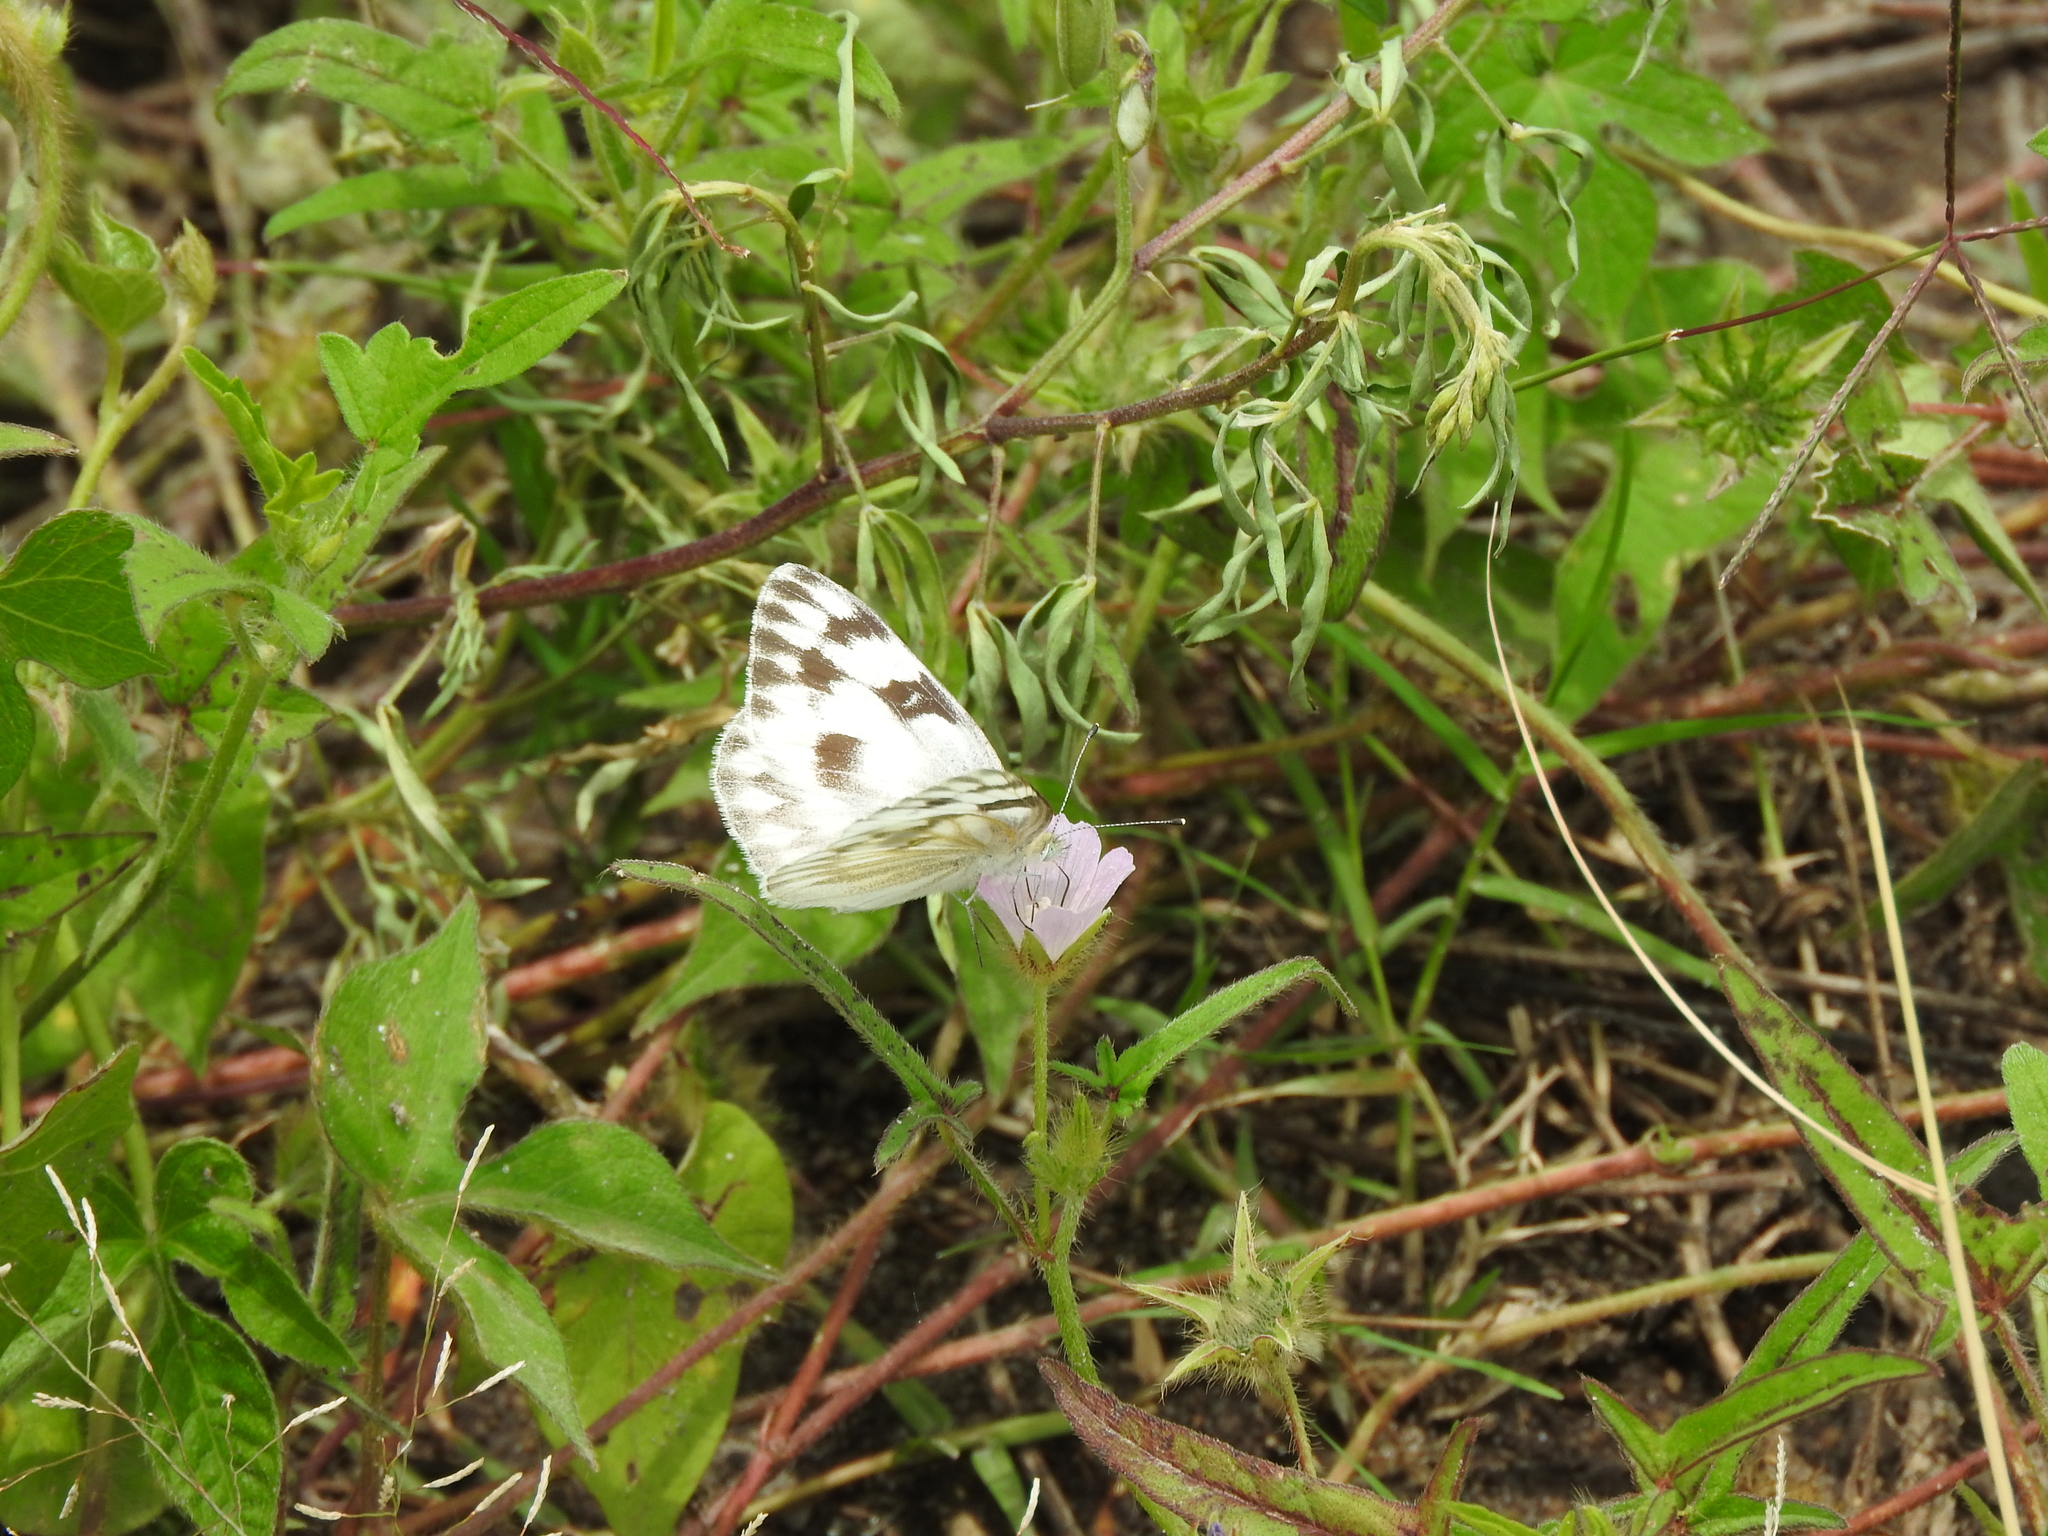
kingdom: Animalia
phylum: Arthropoda
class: Insecta
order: Lepidoptera
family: Pieridae
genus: Pontia
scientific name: Pontia protodice
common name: Checkered white
